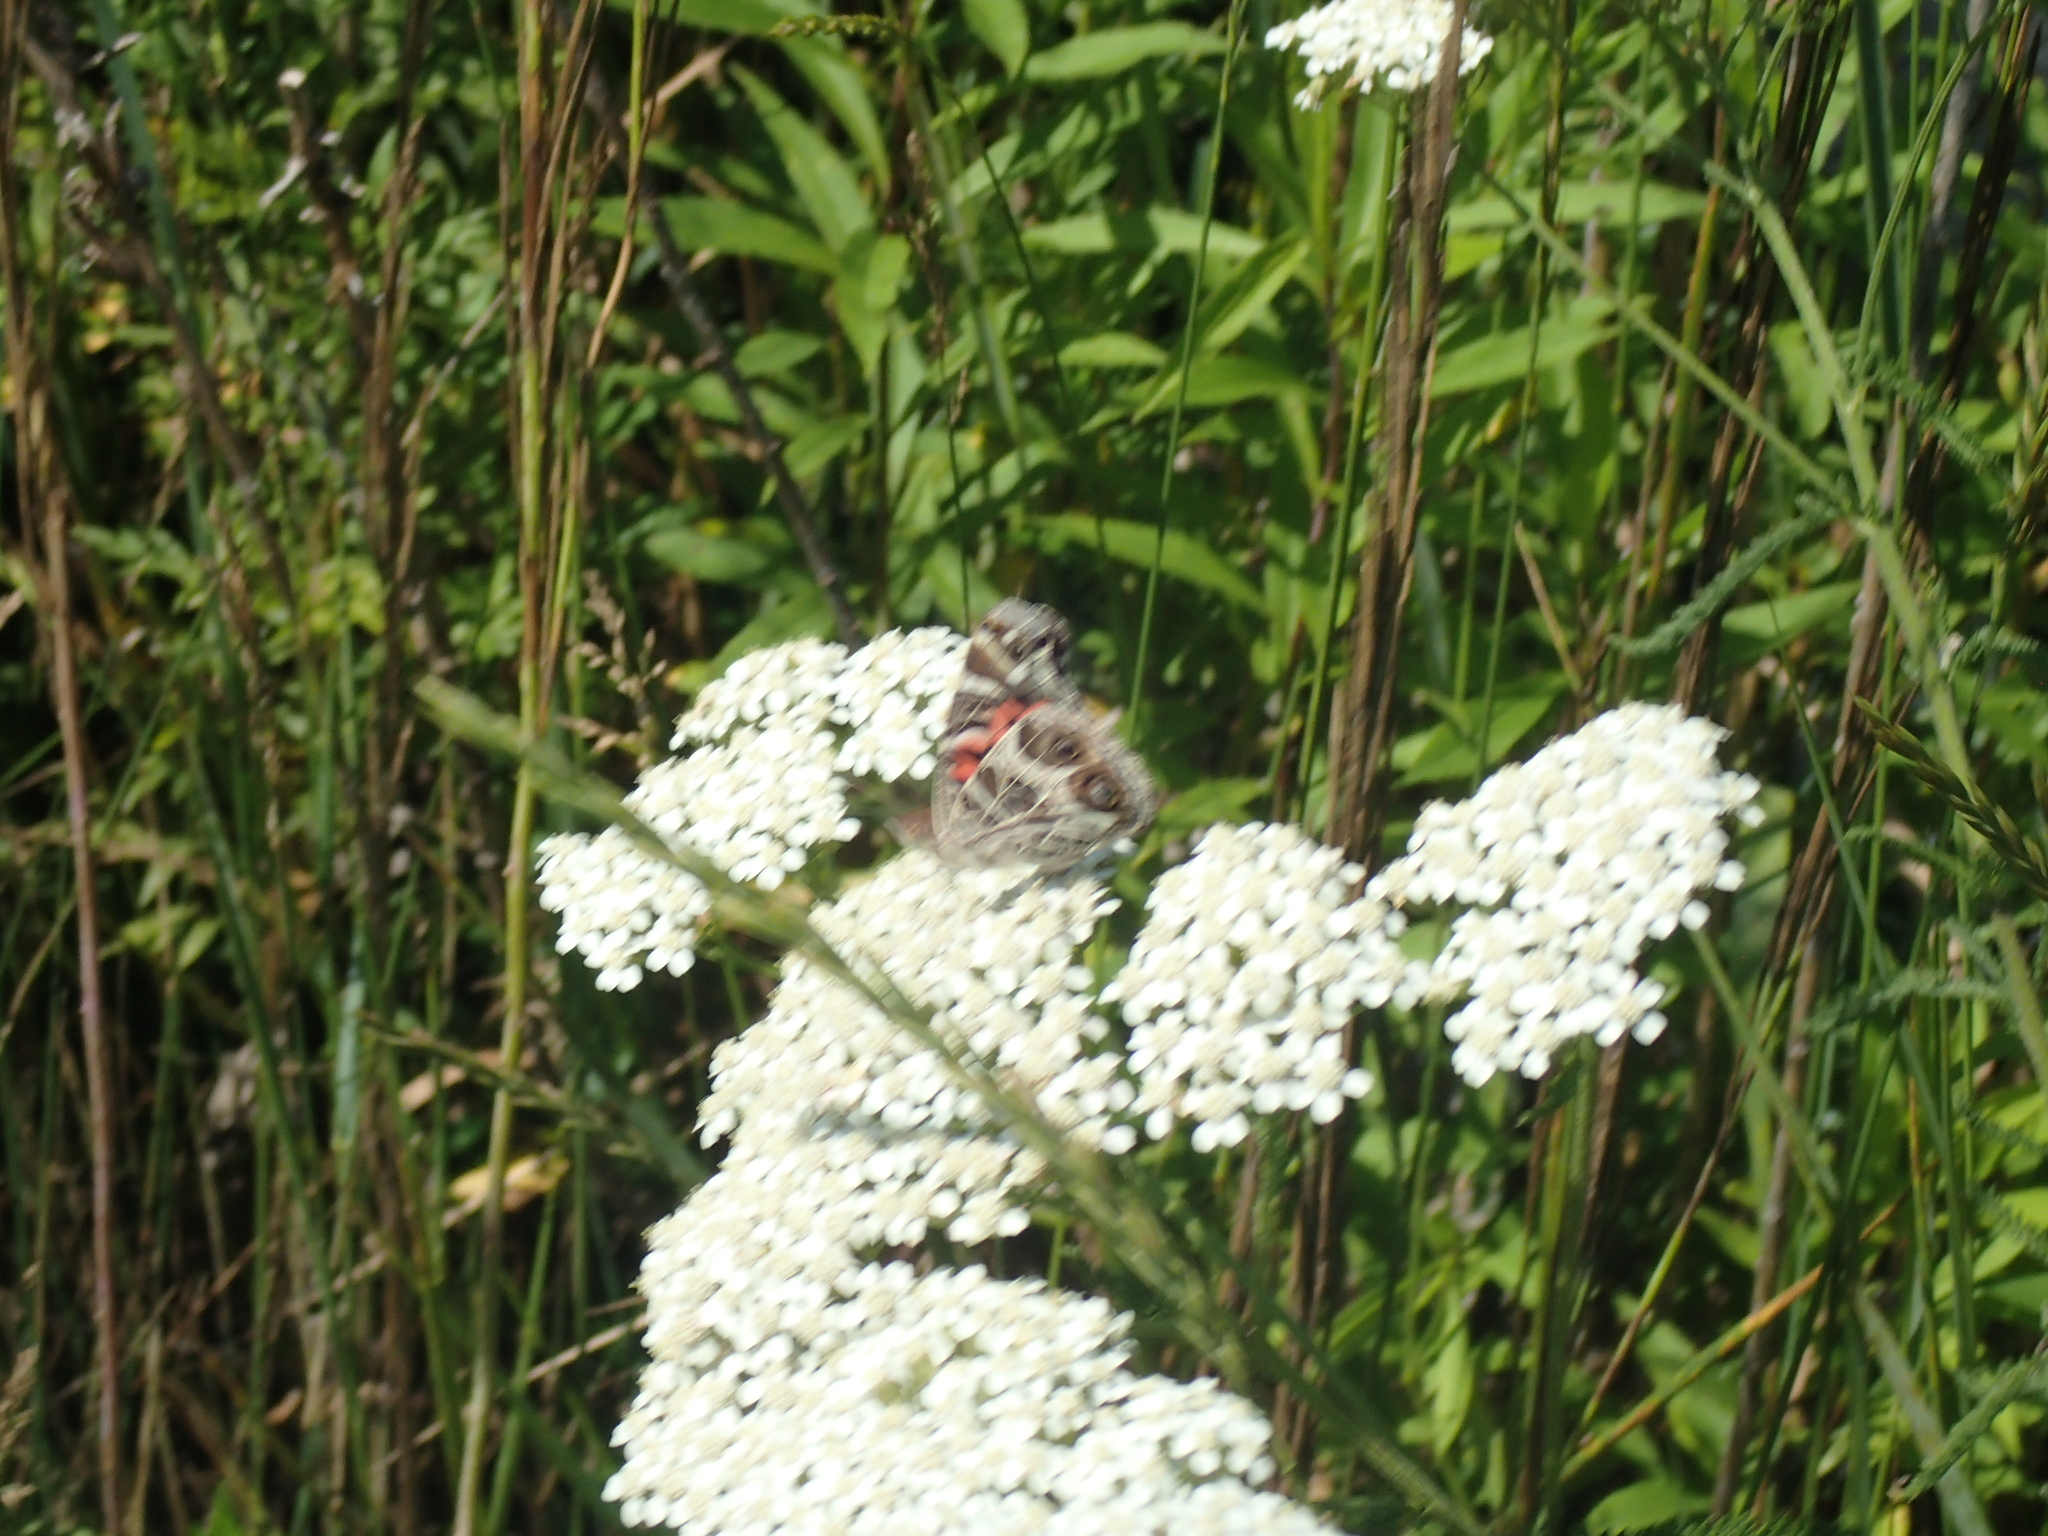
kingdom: Animalia
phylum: Arthropoda
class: Insecta
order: Lepidoptera
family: Nymphalidae
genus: Vanessa
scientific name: Vanessa virginiensis
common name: American lady
